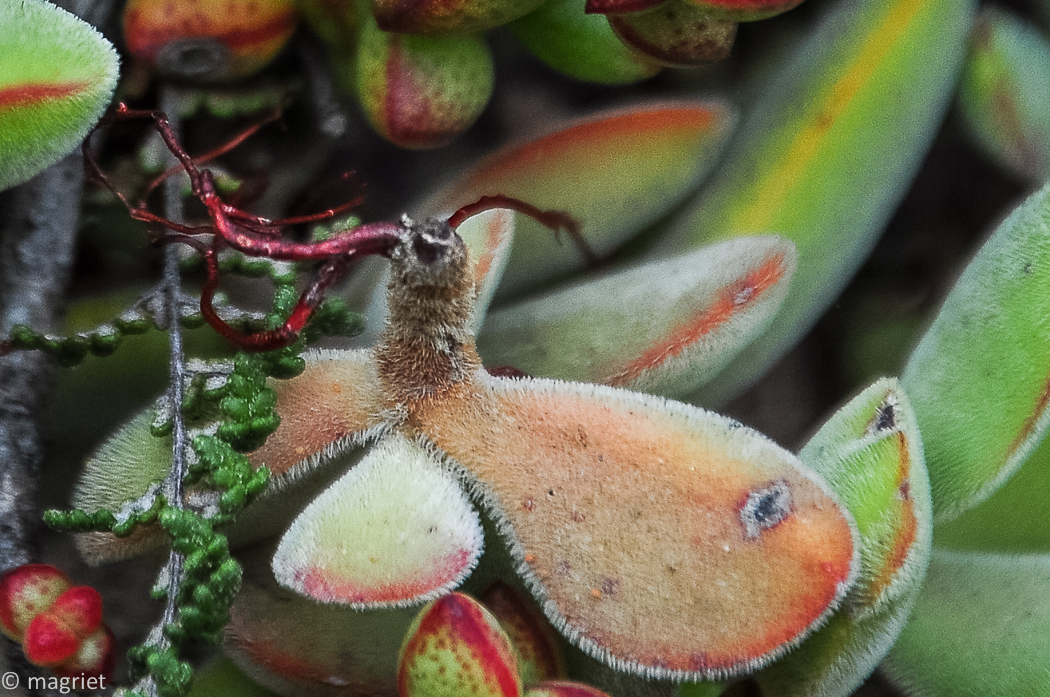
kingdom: Plantae
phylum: Tracheophyta
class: Magnoliopsida
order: Saxifragales
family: Crassulaceae
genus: Crassula
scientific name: Crassula atropurpurea
